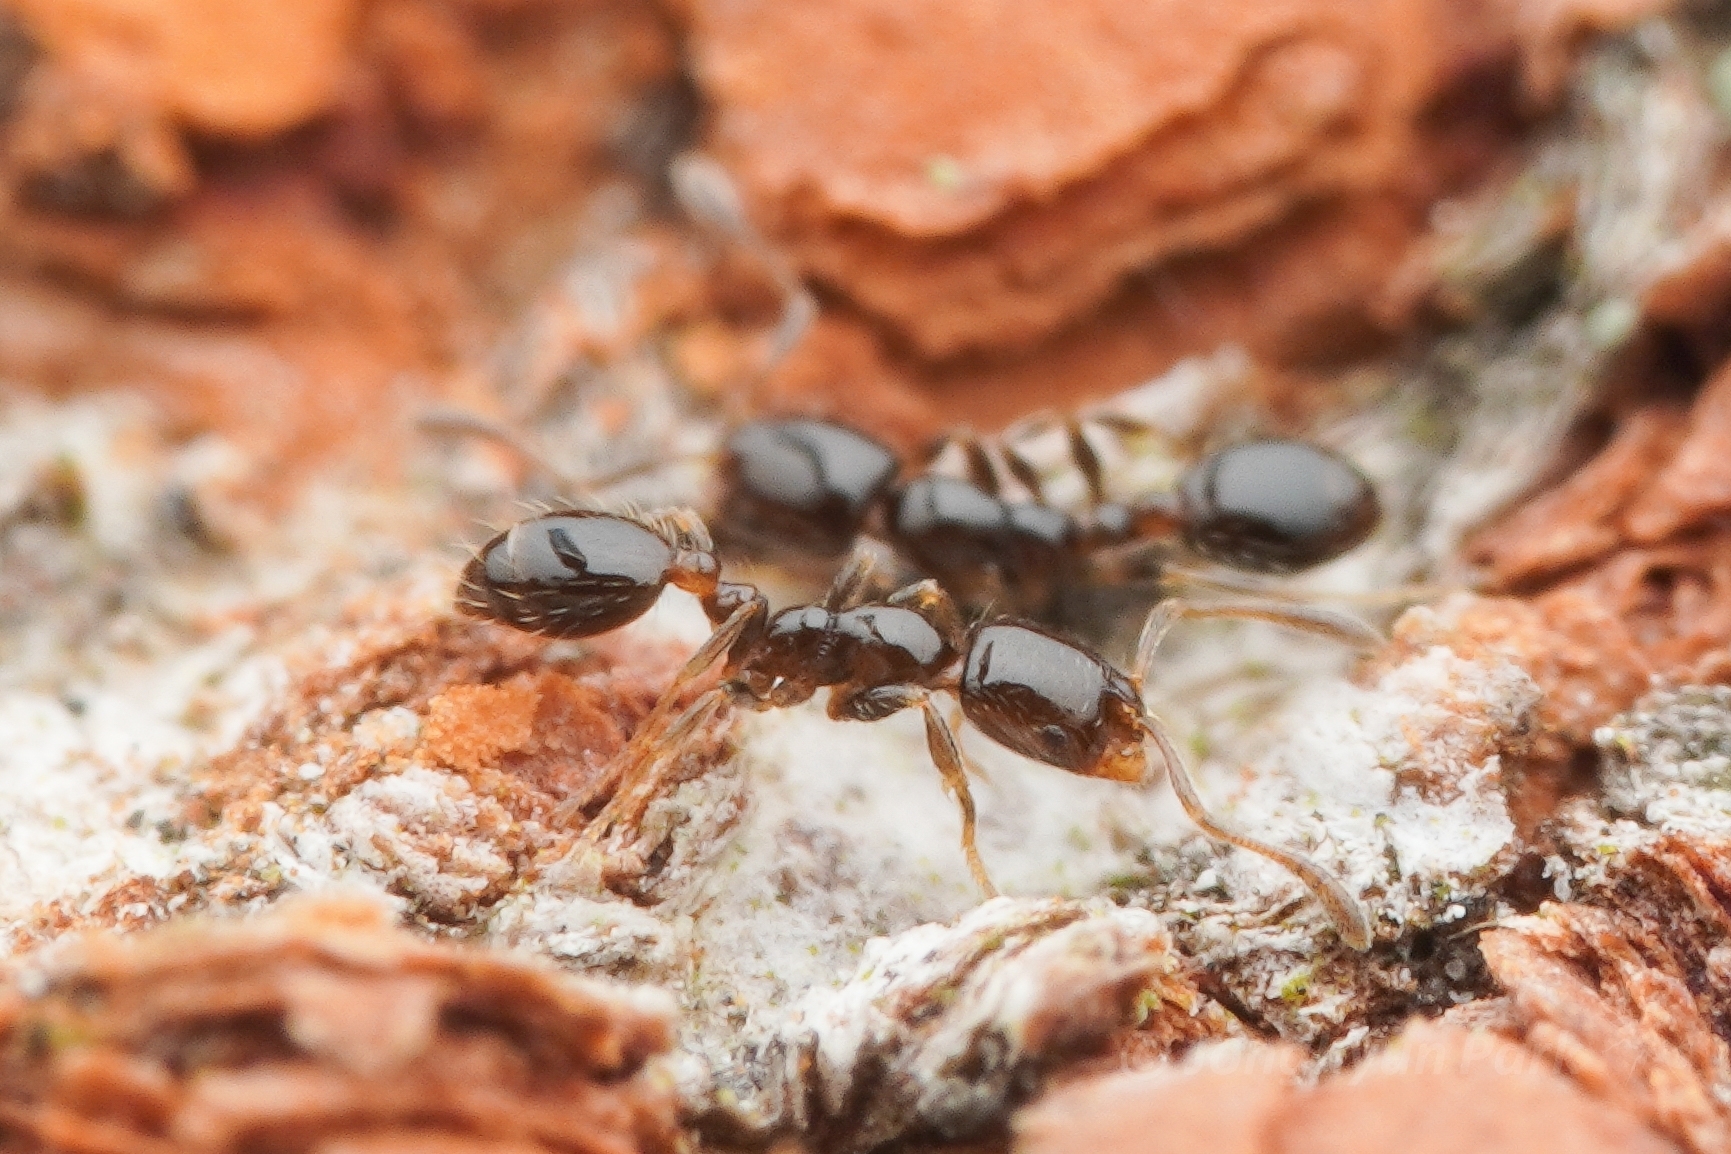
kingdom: Animalia
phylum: Arthropoda
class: Insecta
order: Hymenoptera
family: Formicidae
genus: Monomorium
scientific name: Monomorium chinense
